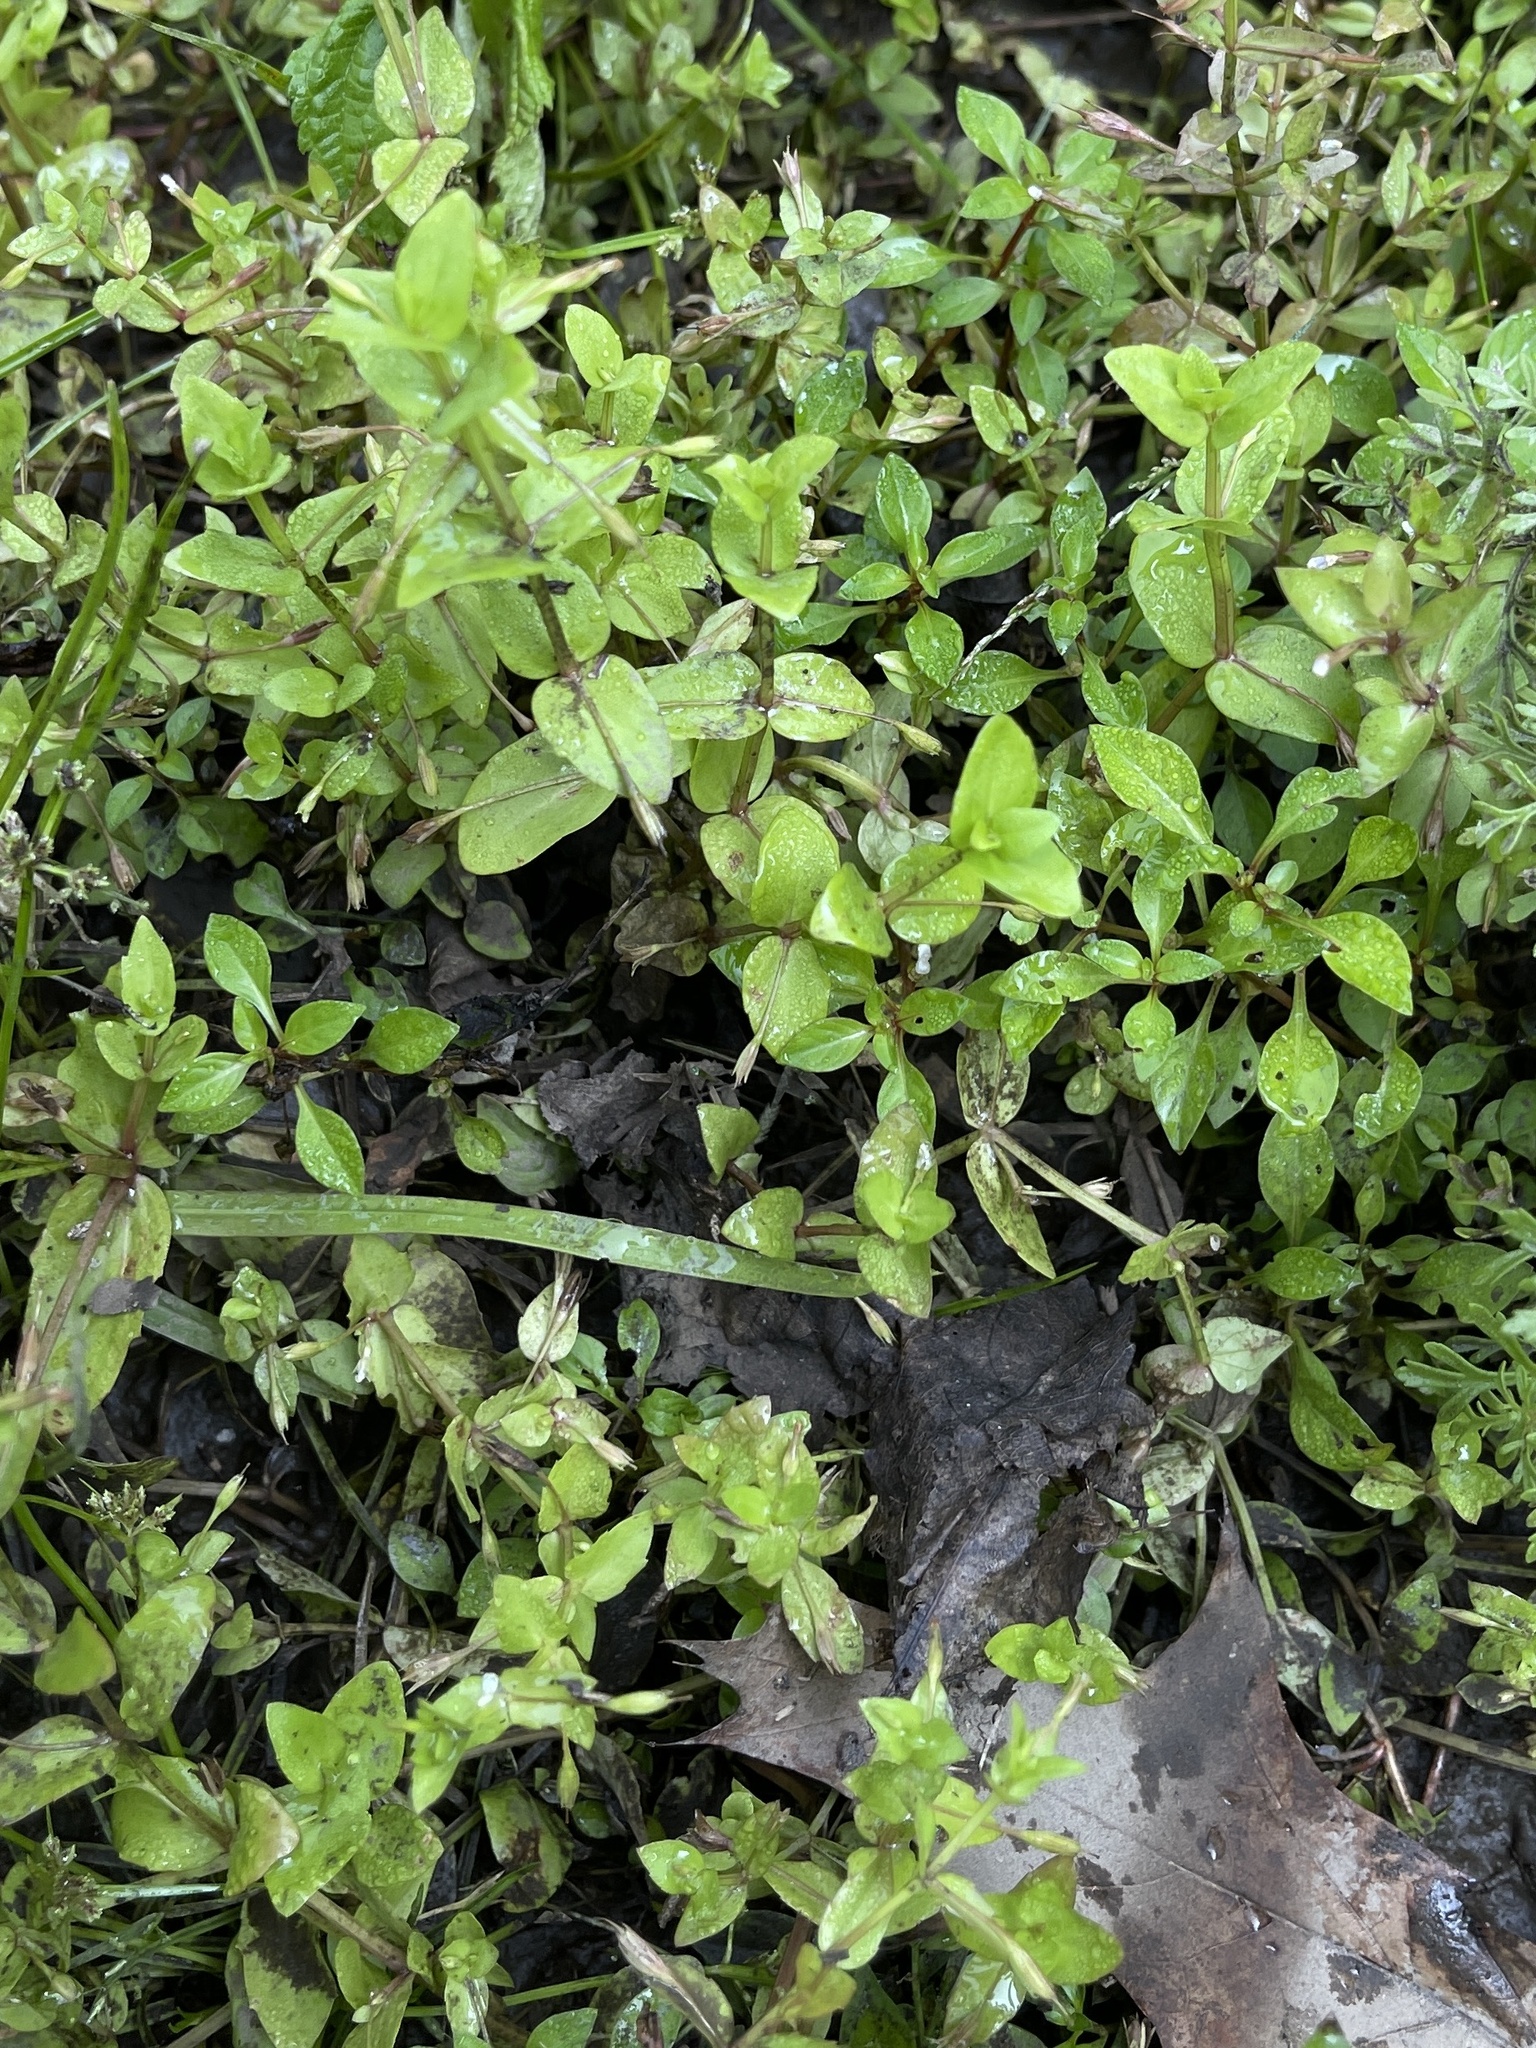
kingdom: Plantae
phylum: Tracheophyta
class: Magnoliopsida
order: Lamiales
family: Linderniaceae
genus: Lindernia
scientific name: Lindernia dubia
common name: Annual false pimpernel
